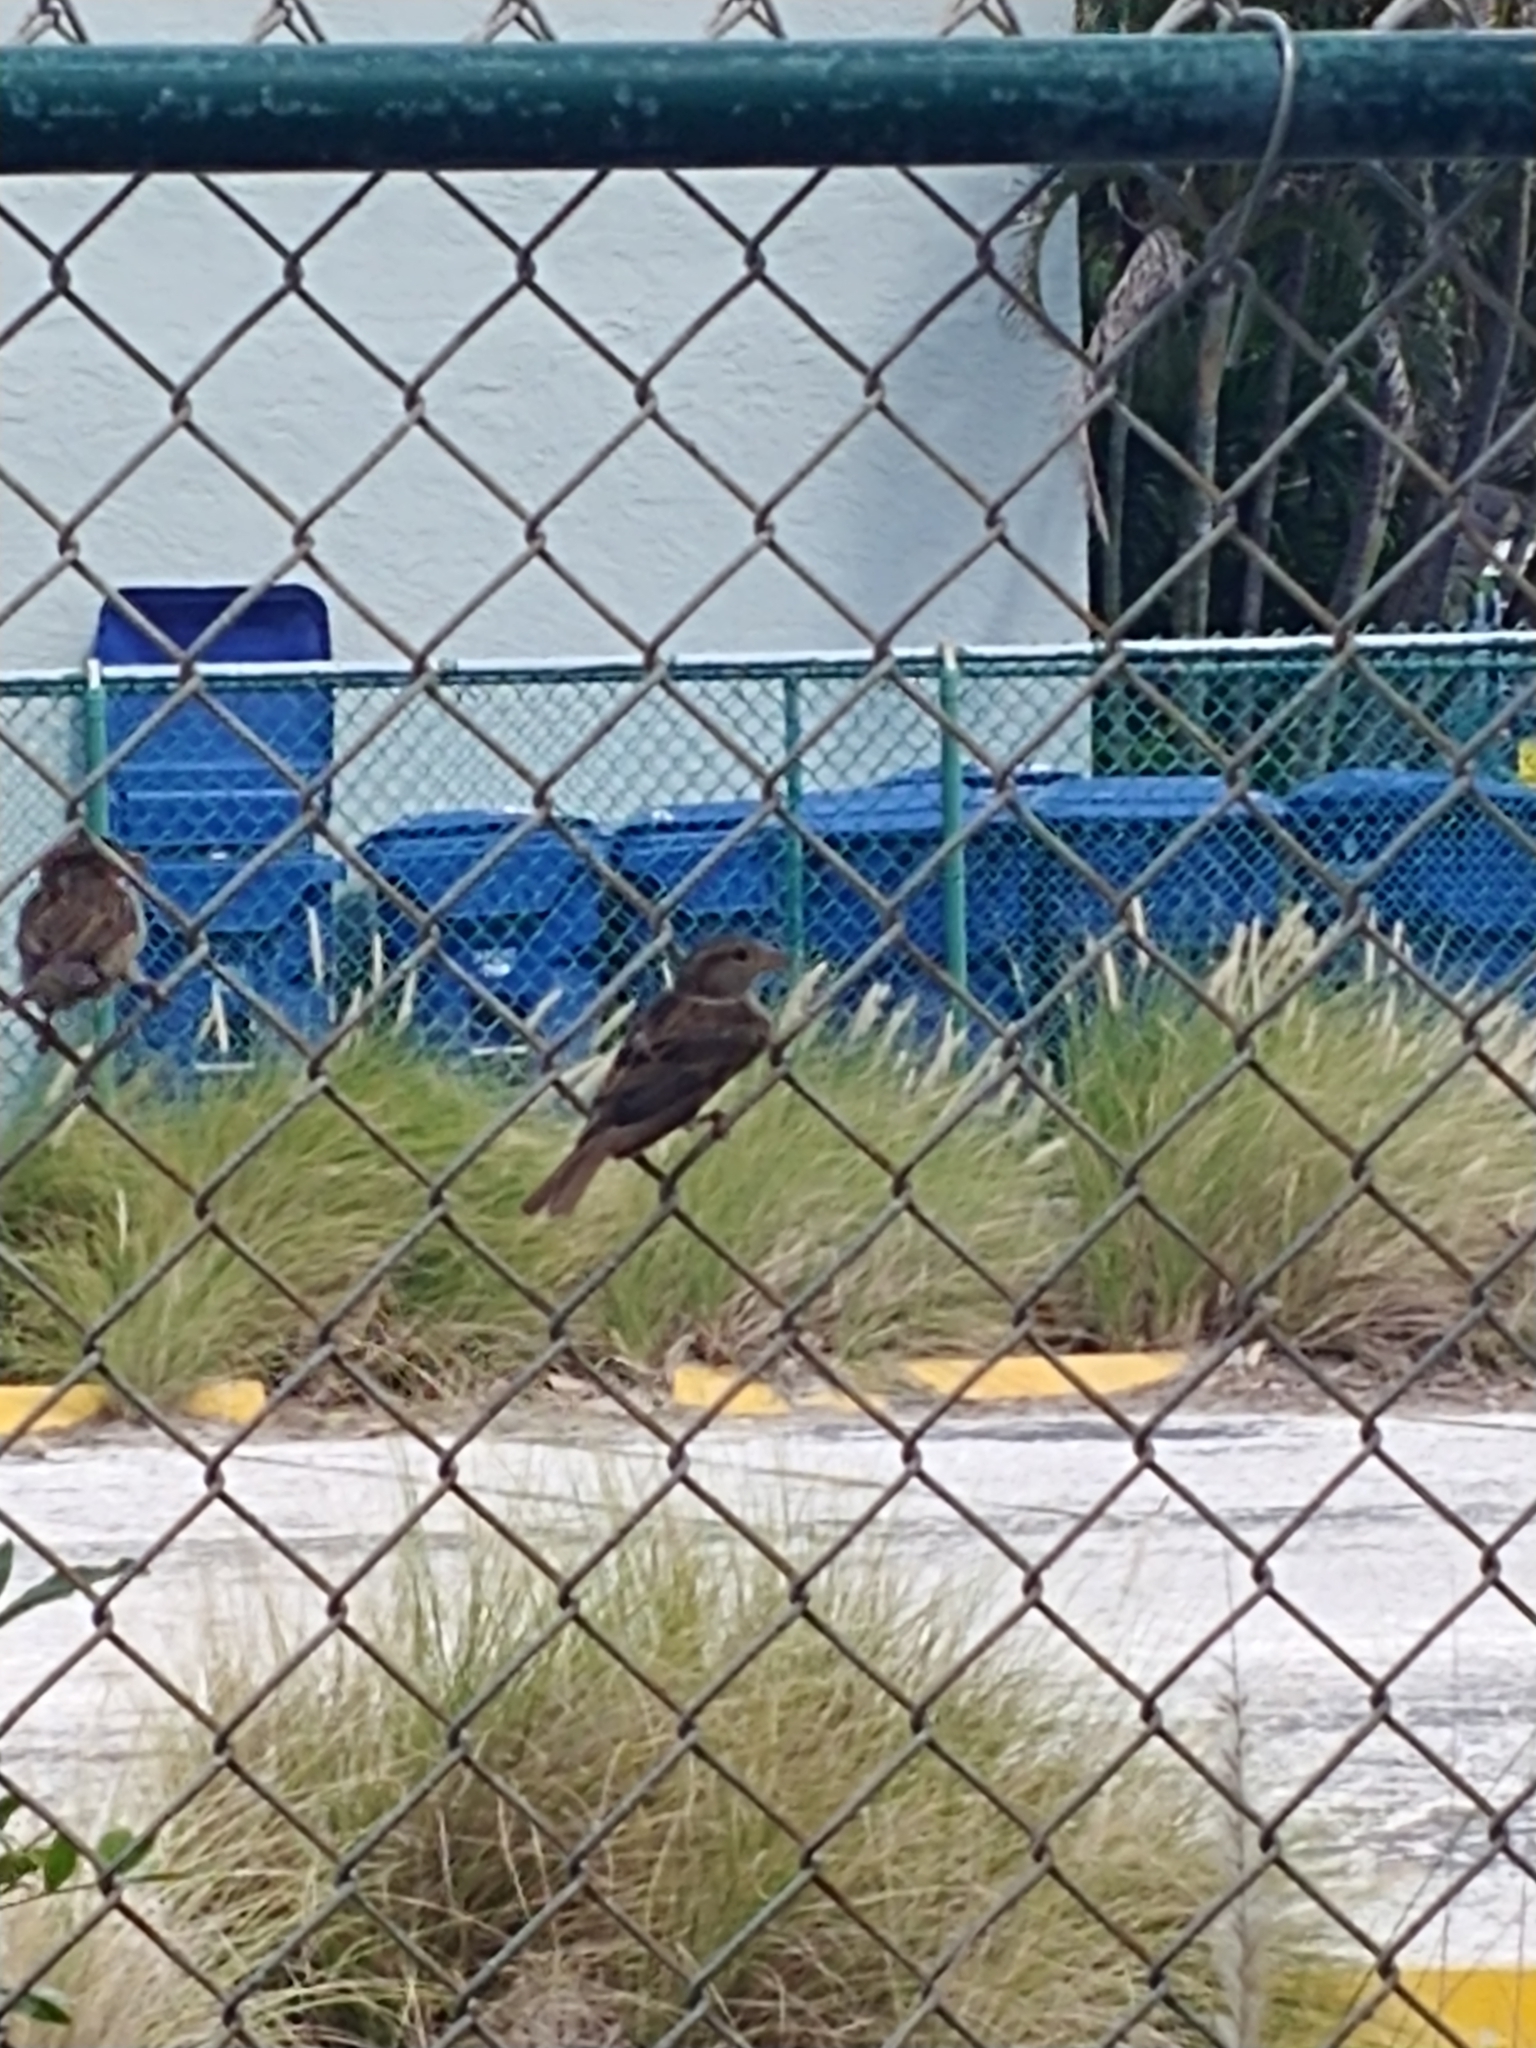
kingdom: Animalia
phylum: Chordata
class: Aves
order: Passeriformes
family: Passeridae
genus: Passer
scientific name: Passer domesticus
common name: House sparrow
